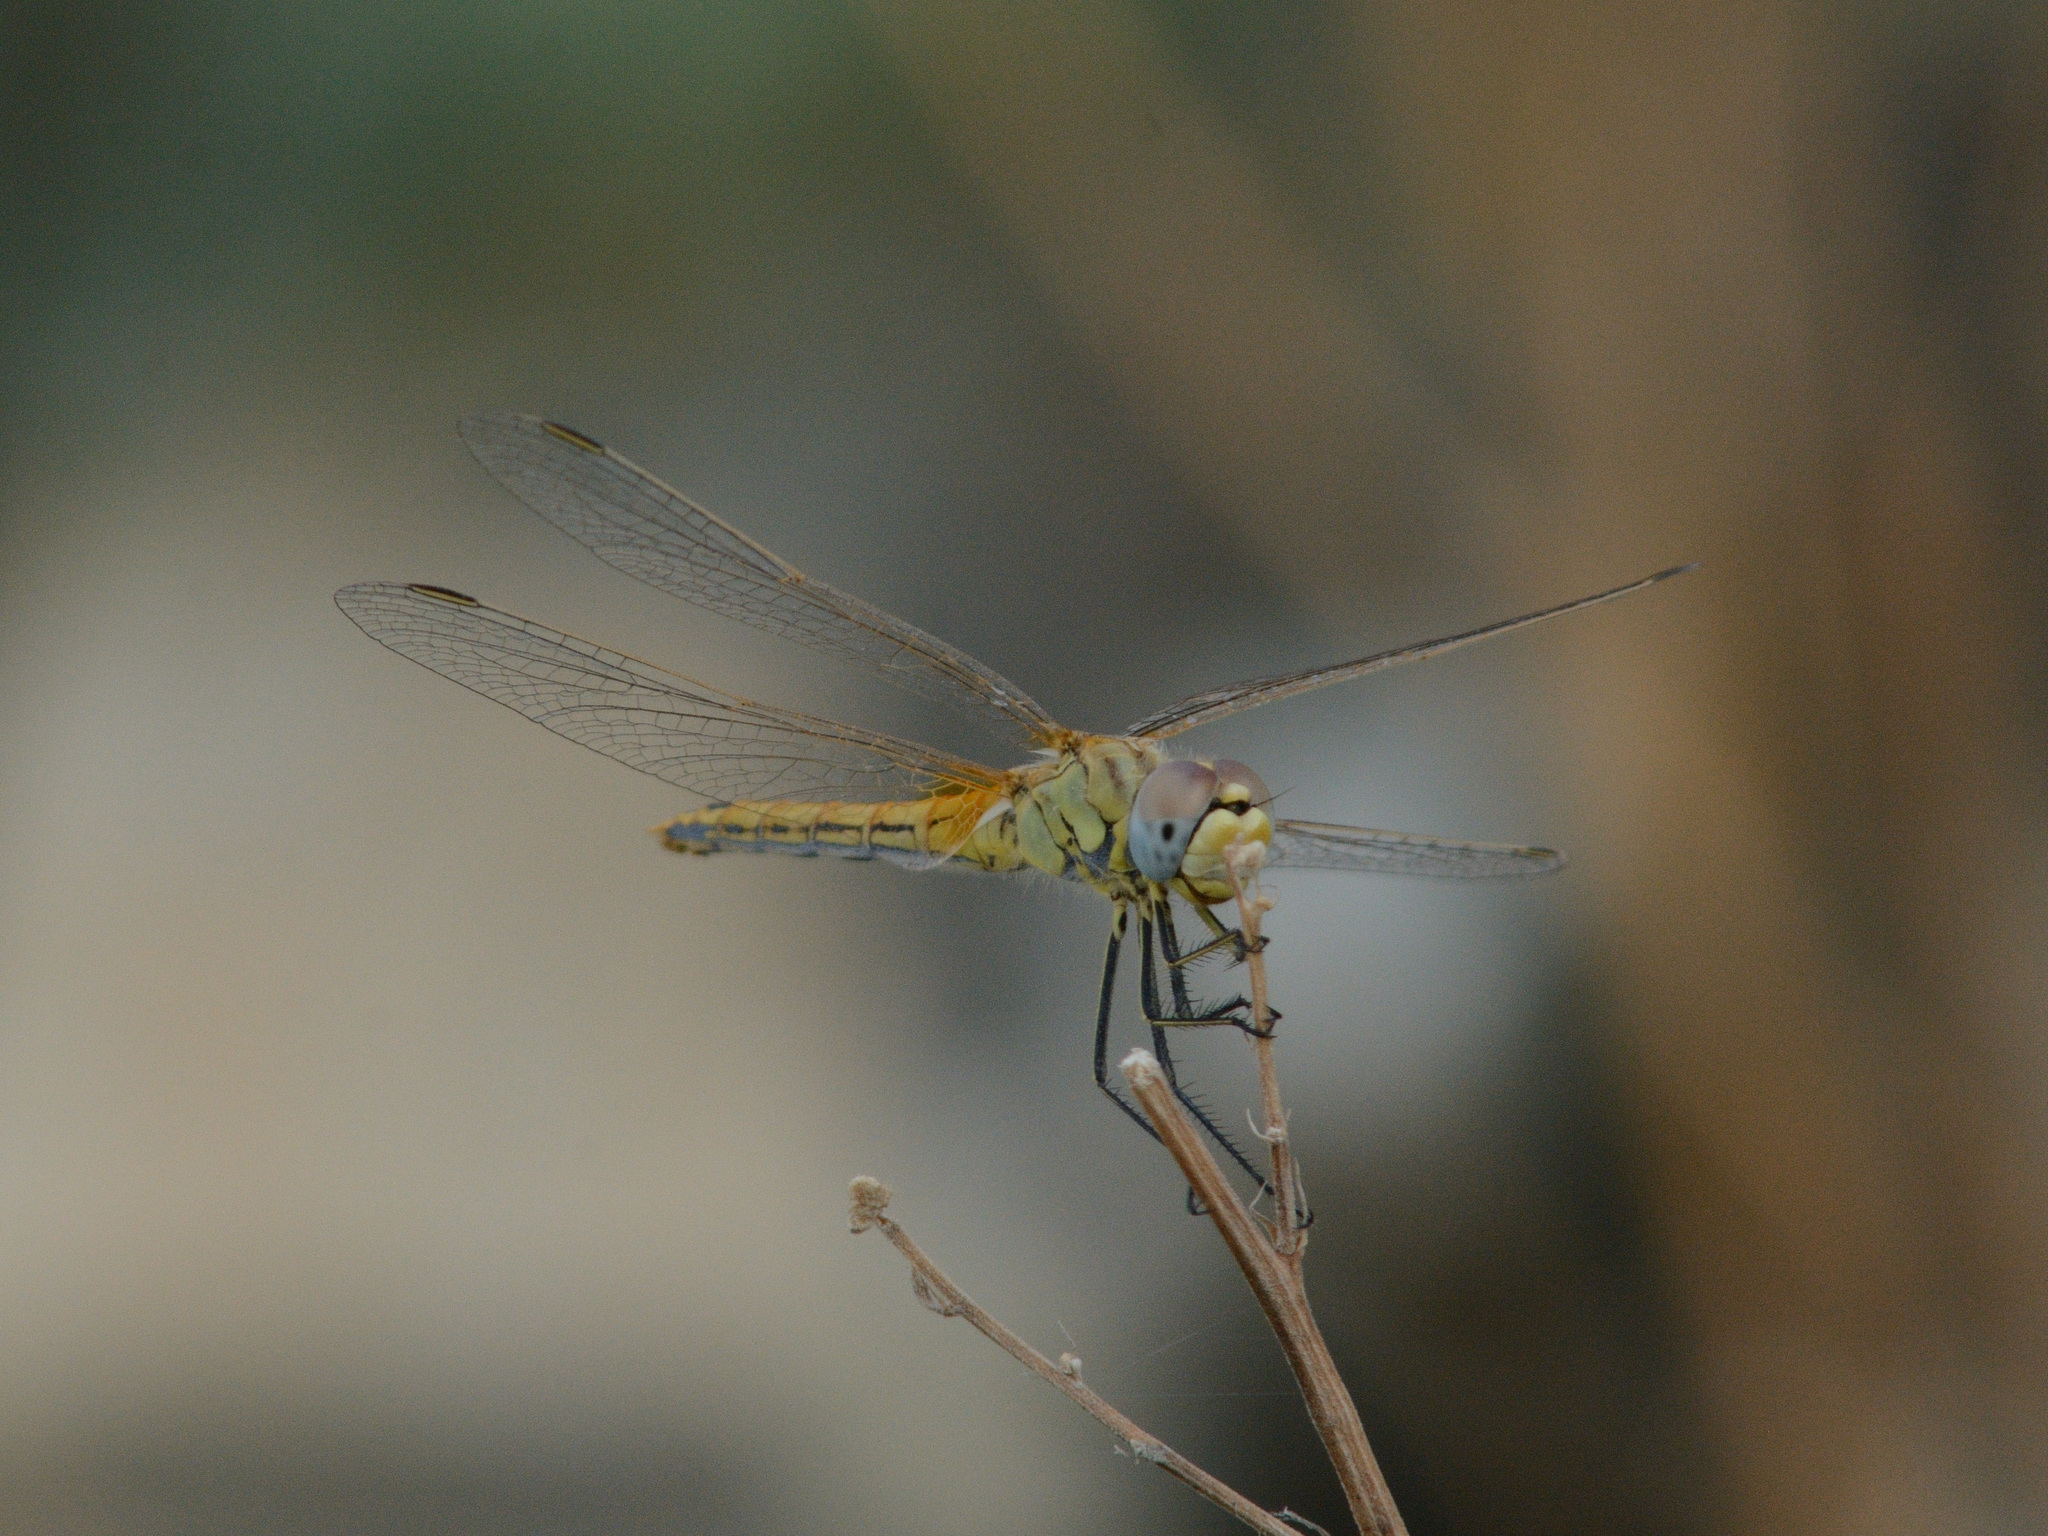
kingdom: Animalia
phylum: Arthropoda
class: Insecta
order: Odonata
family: Libellulidae
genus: Sympetrum
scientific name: Sympetrum fonscolombii
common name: Red-veined darter
